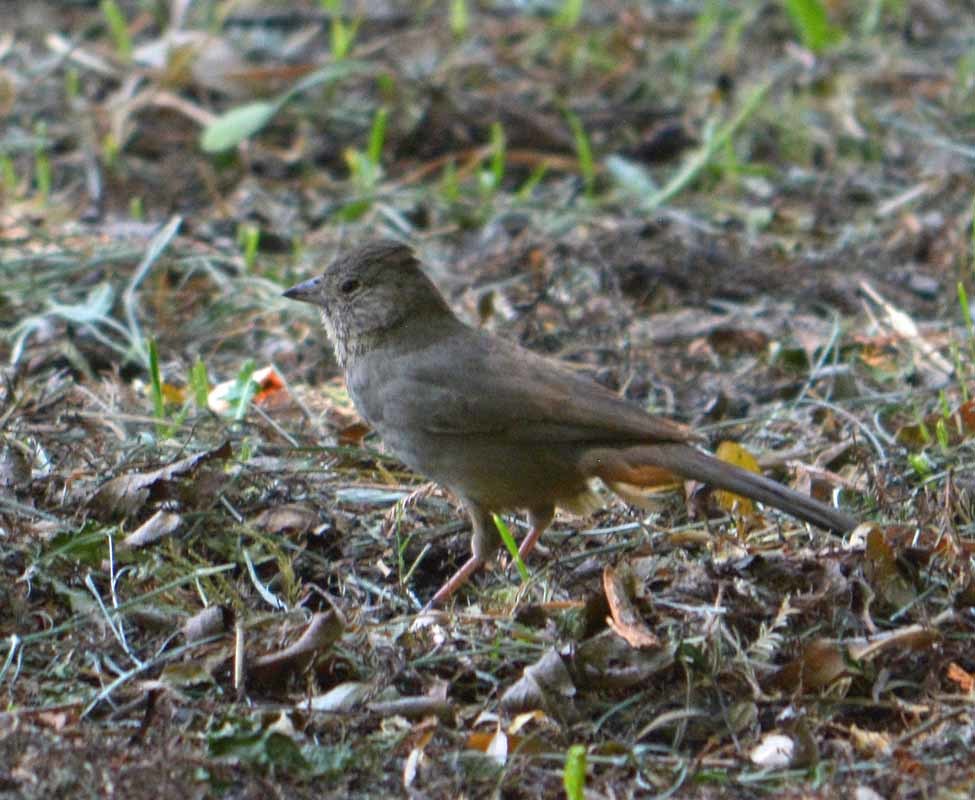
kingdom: Animalia
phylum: Chordata
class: Aves
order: Passeriformes
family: Passerellidae
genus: Melozone
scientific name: Melozone fusca
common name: Canyon towhee
